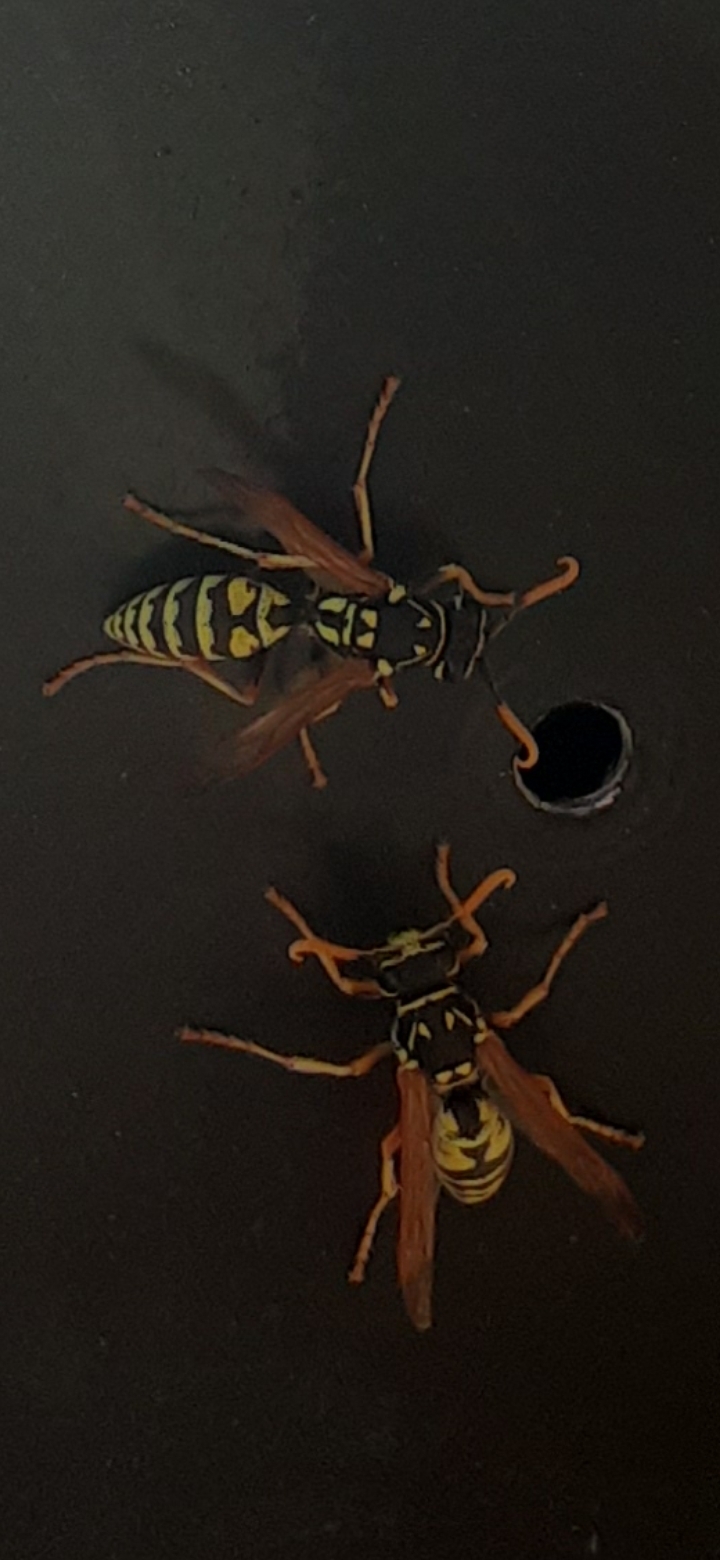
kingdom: Animalia
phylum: Arthropoda
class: Insecta
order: Hymenoptera
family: Eumenidae
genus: Polistes
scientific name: Polistes dominula
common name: Paper wasp
